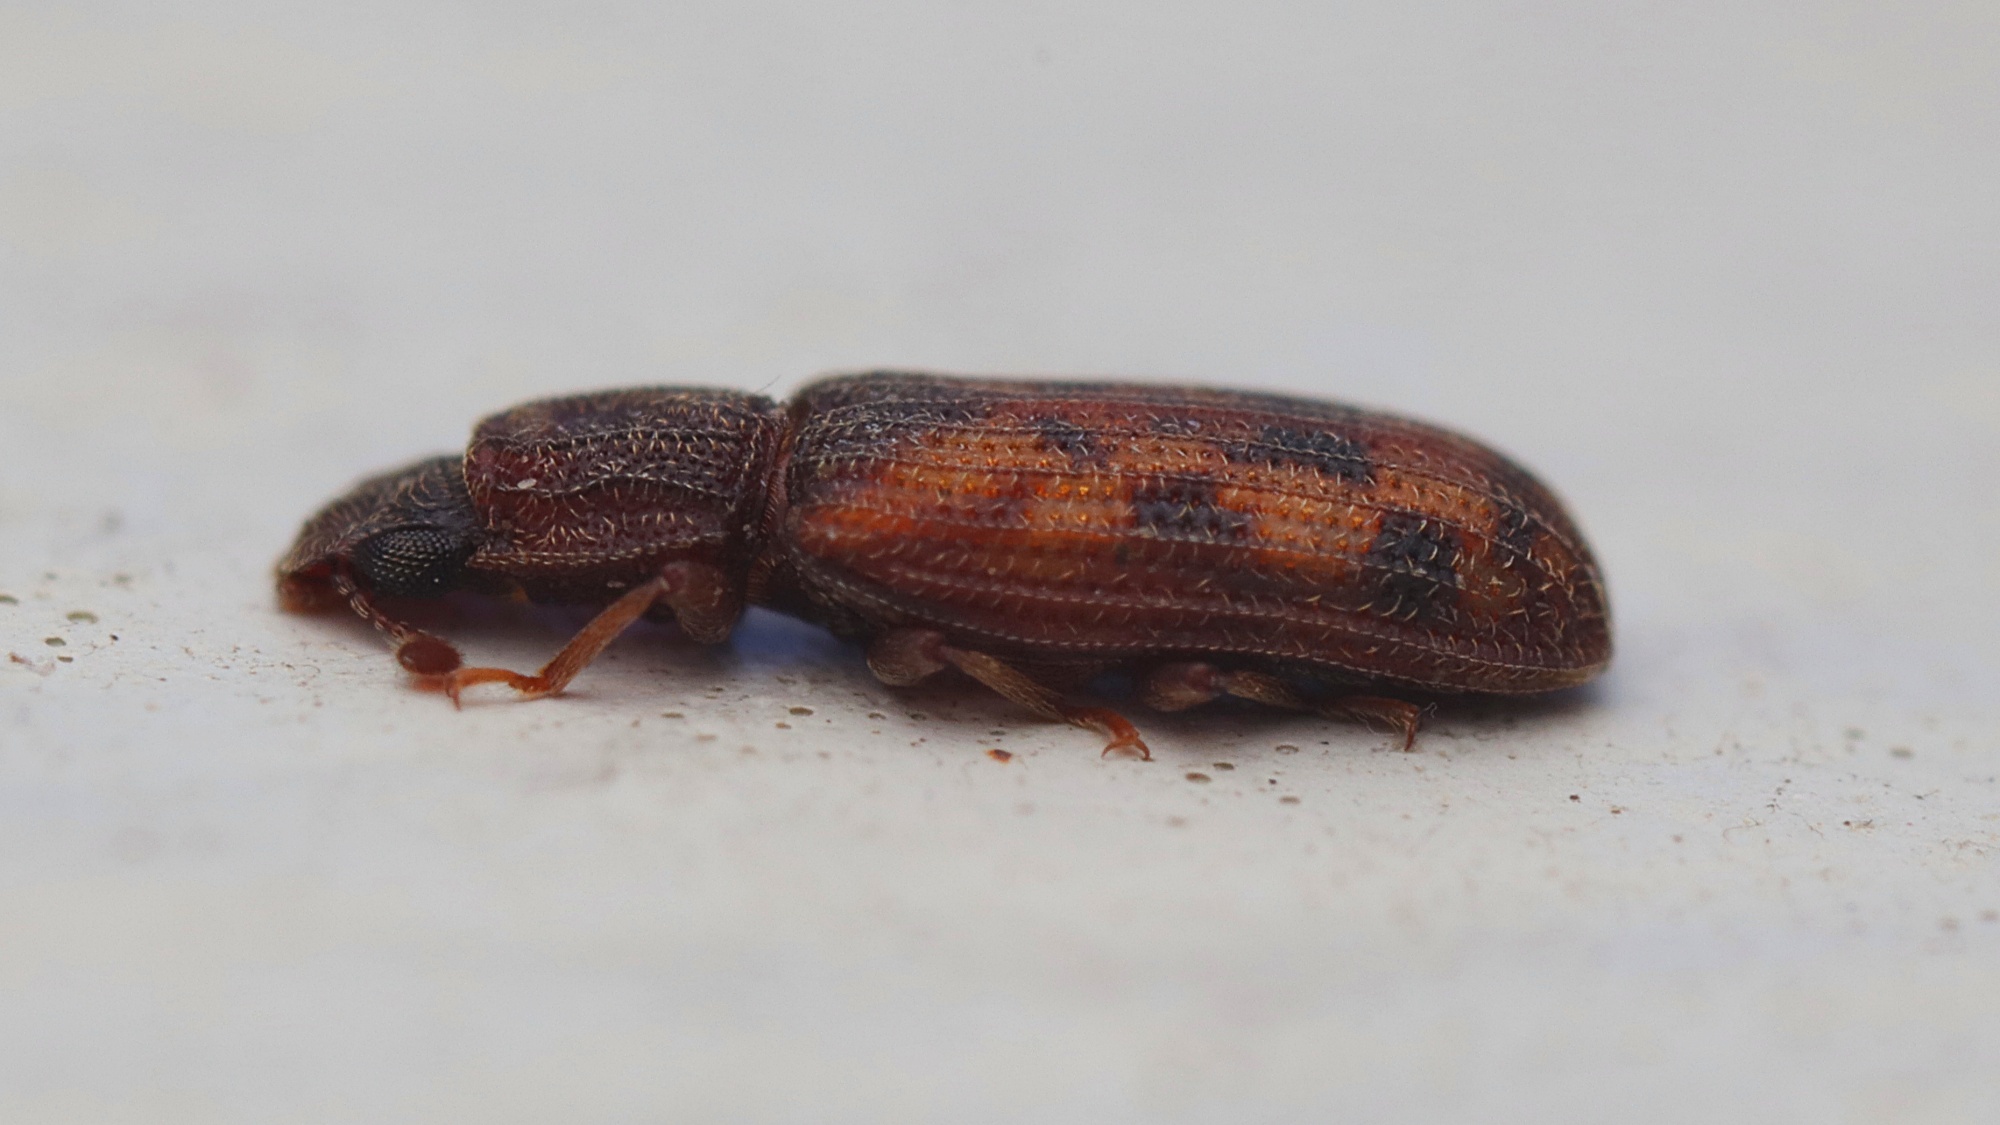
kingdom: Animalia
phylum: Arthropoda
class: Insecta
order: Coleoptera
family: Zopheridae
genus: Bitoma
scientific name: Bitoma insularis
